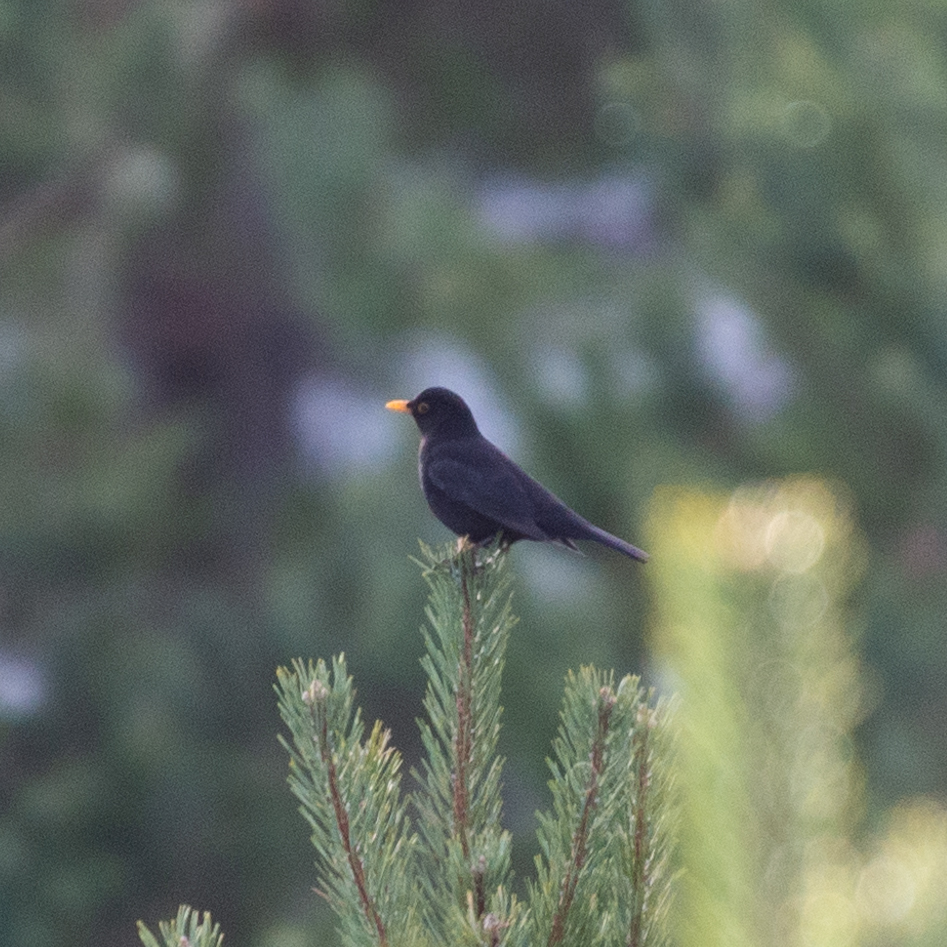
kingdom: Animalia
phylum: Chordata
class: Aves
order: Passeriformes
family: Turdidae
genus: Turdus
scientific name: Turdus merula
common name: Common blackbird
